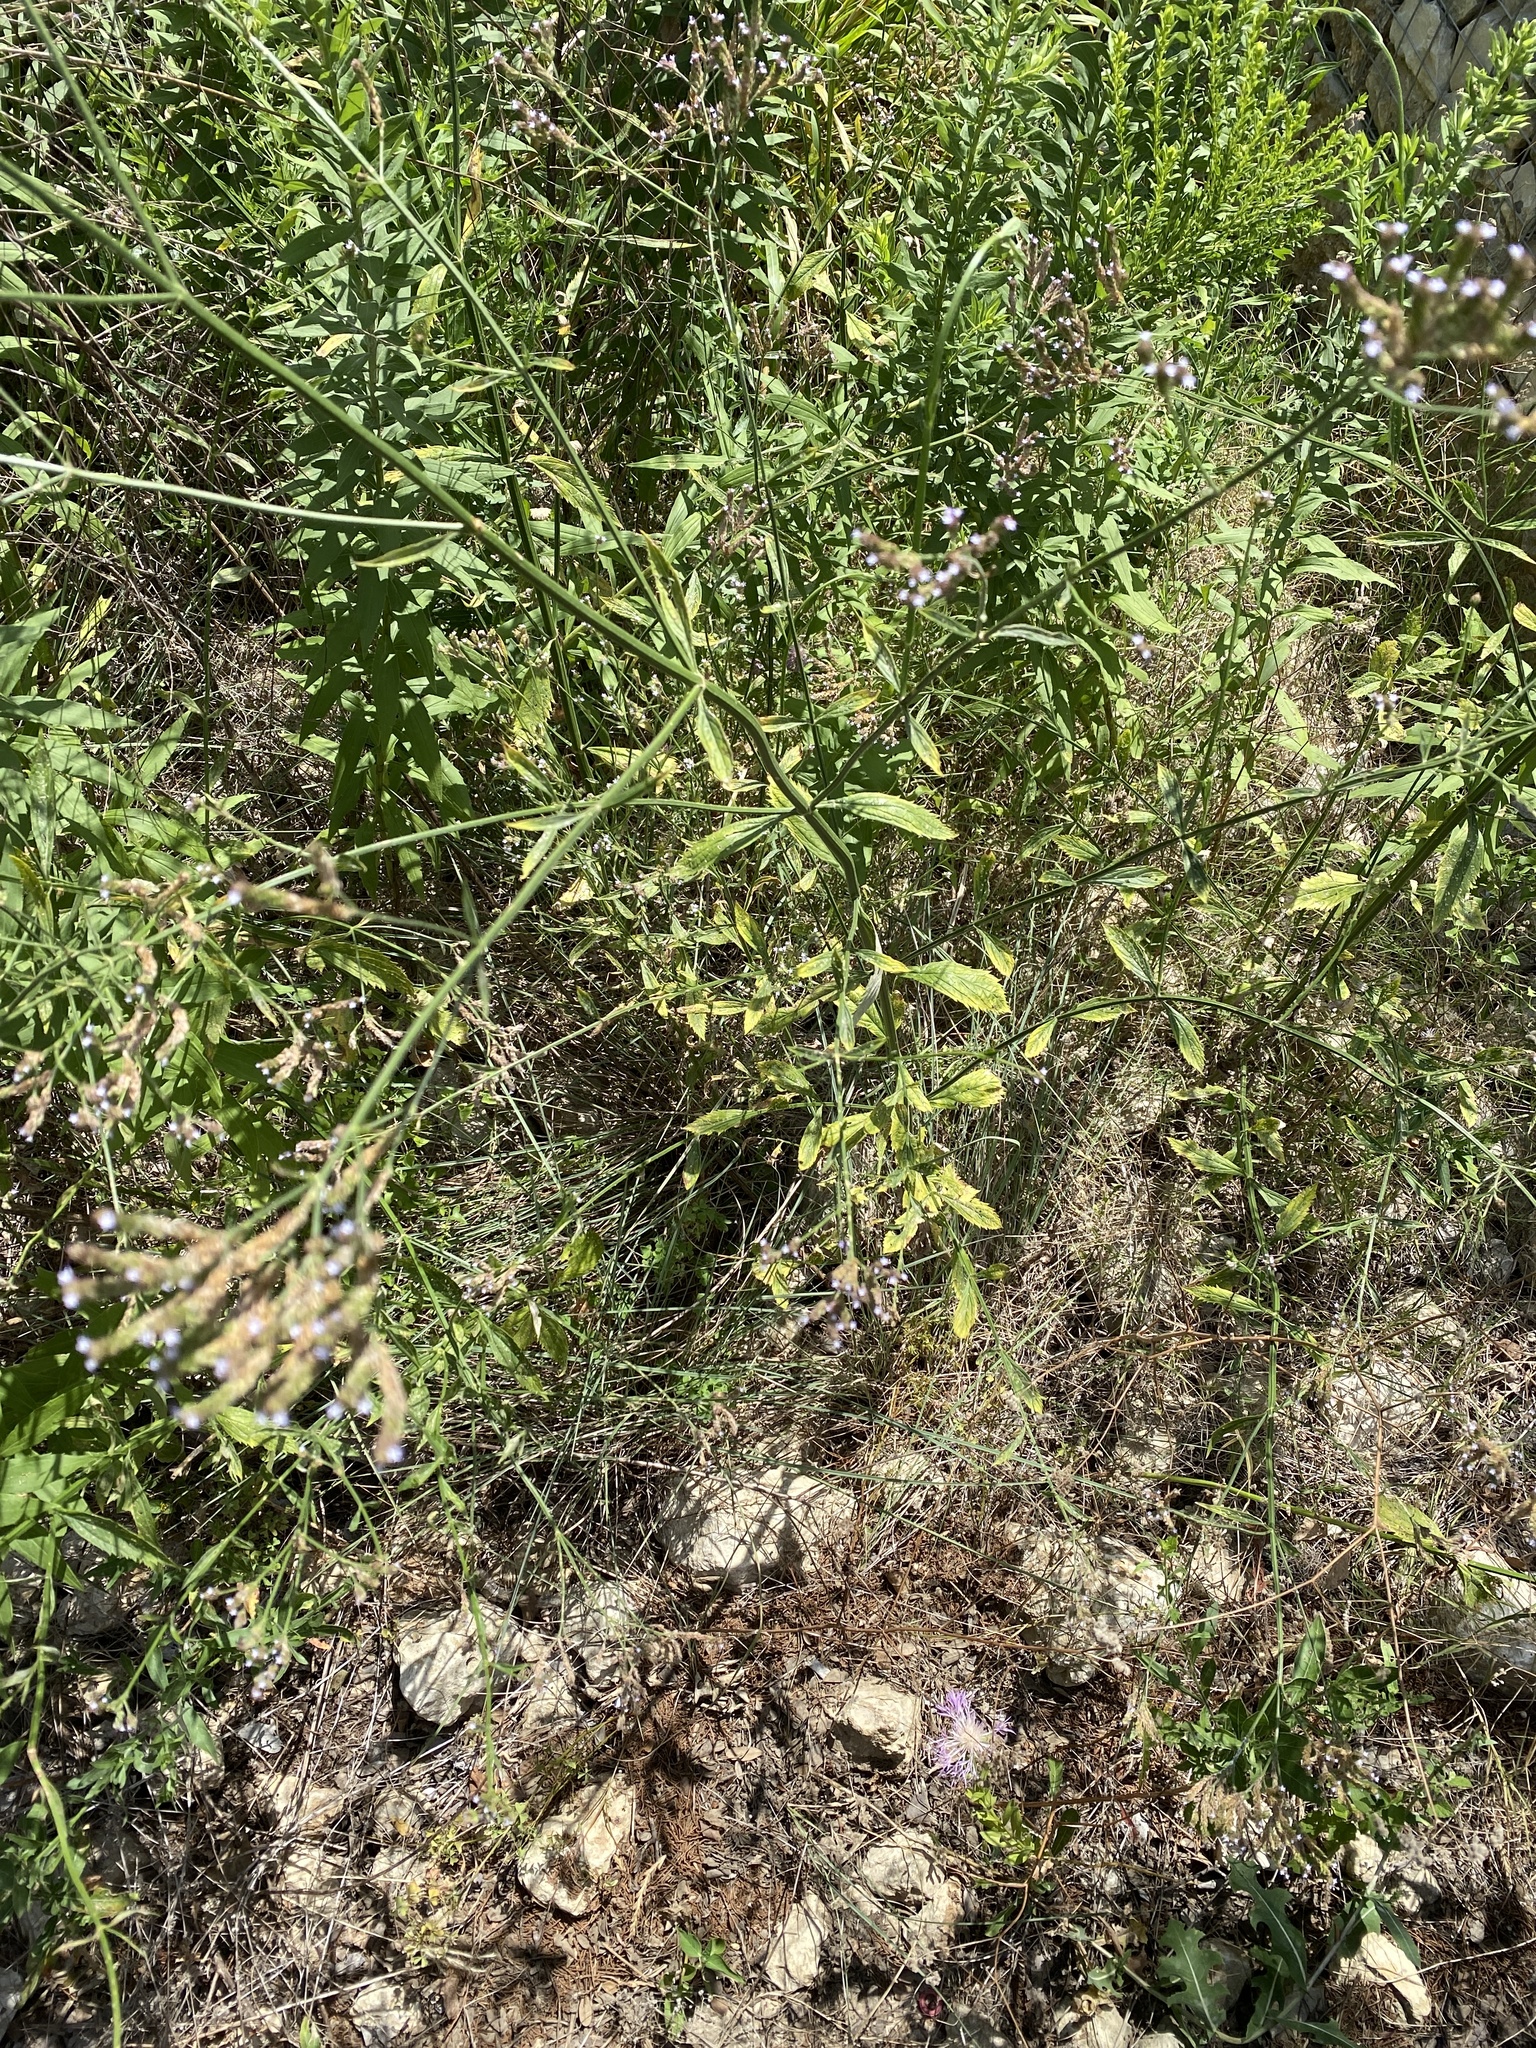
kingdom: Plantae
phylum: Tracheophyta
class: Magnoliopsida
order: Lamiales
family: Verbenaceae
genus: Verbena
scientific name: Verbena brasiliensis
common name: Brazilian vervain
